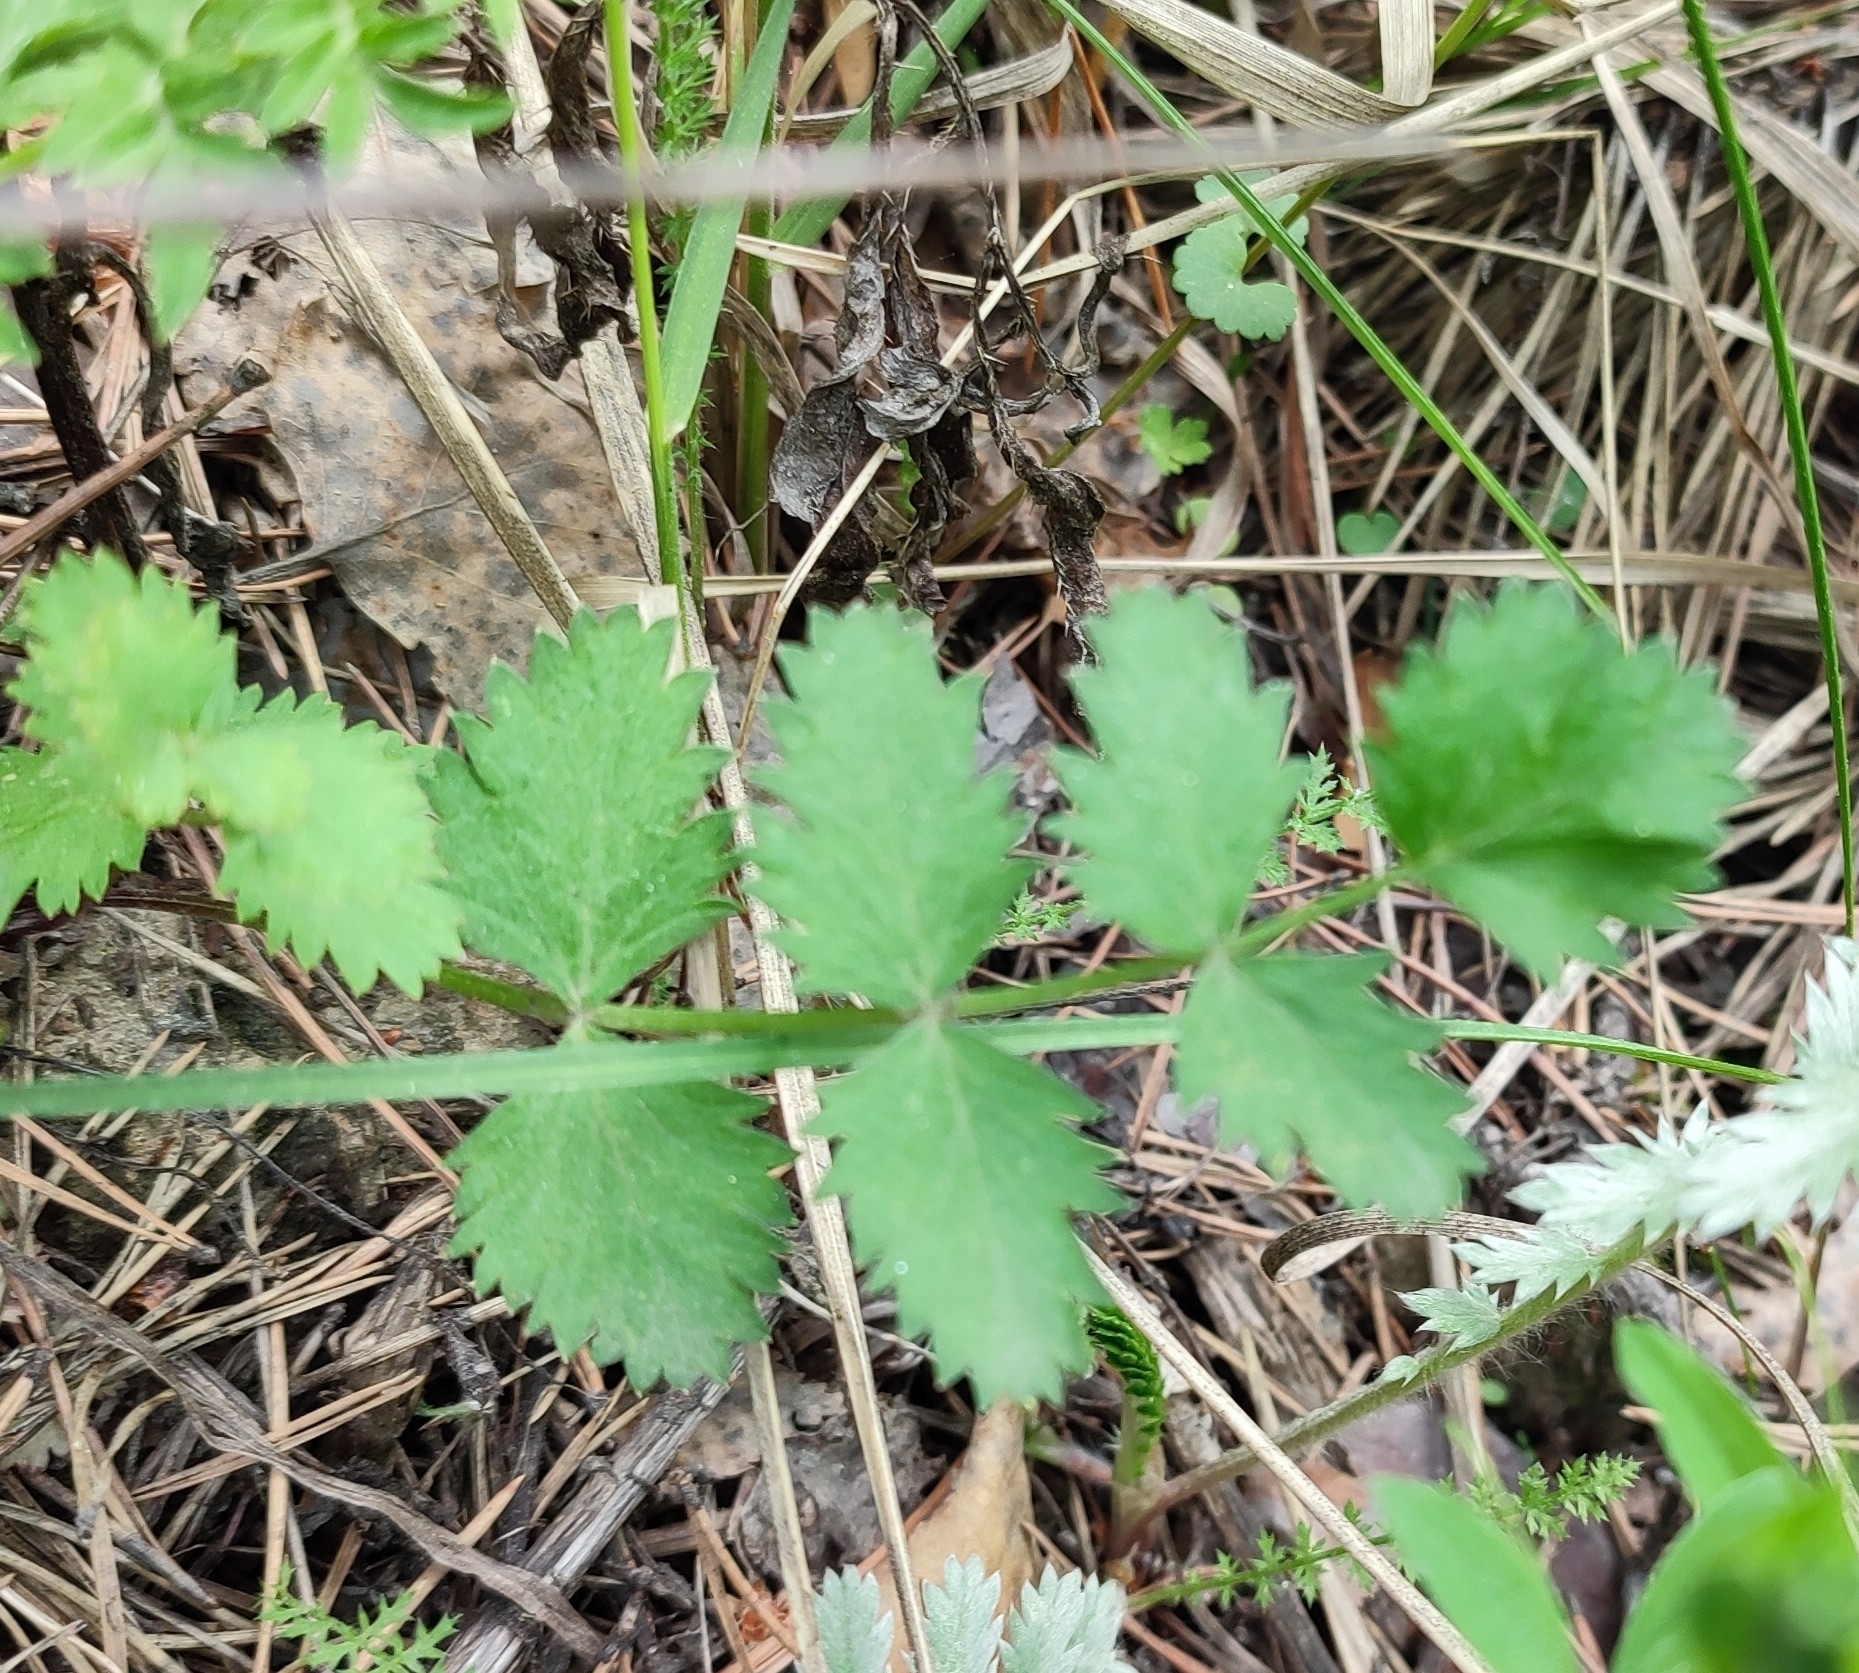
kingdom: Plantae
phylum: Tracheophyta
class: Magnoliopsida
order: Apiales
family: Apiaceae
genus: Pimpinella
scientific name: Pimpinella saxifraga
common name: Burnet-saxifrage
